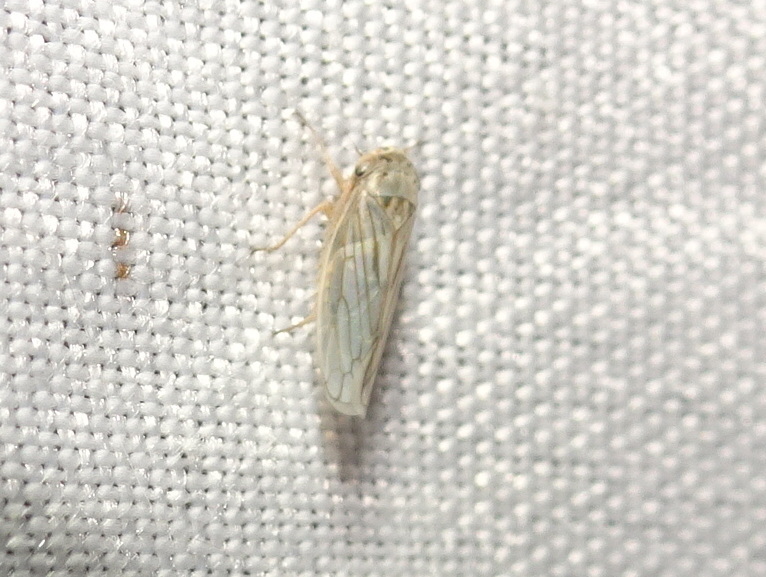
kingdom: Animalia
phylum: Arthropoda
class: Insecta
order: Hemiptera
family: Cicadellidae
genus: Exitianus
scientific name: Exitianus exitiosus
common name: Gray lawn leafhopper
